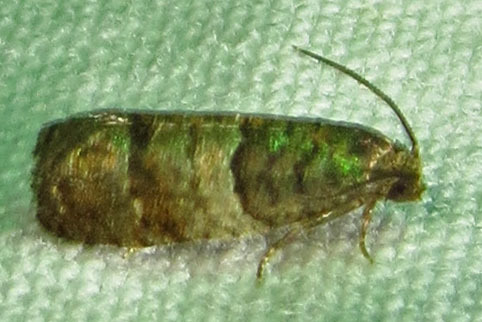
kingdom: Animalia
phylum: Arthropoda
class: Insecta
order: Lepidoptera
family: Tortricidae
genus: Larisa
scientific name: Larisa subsolana
